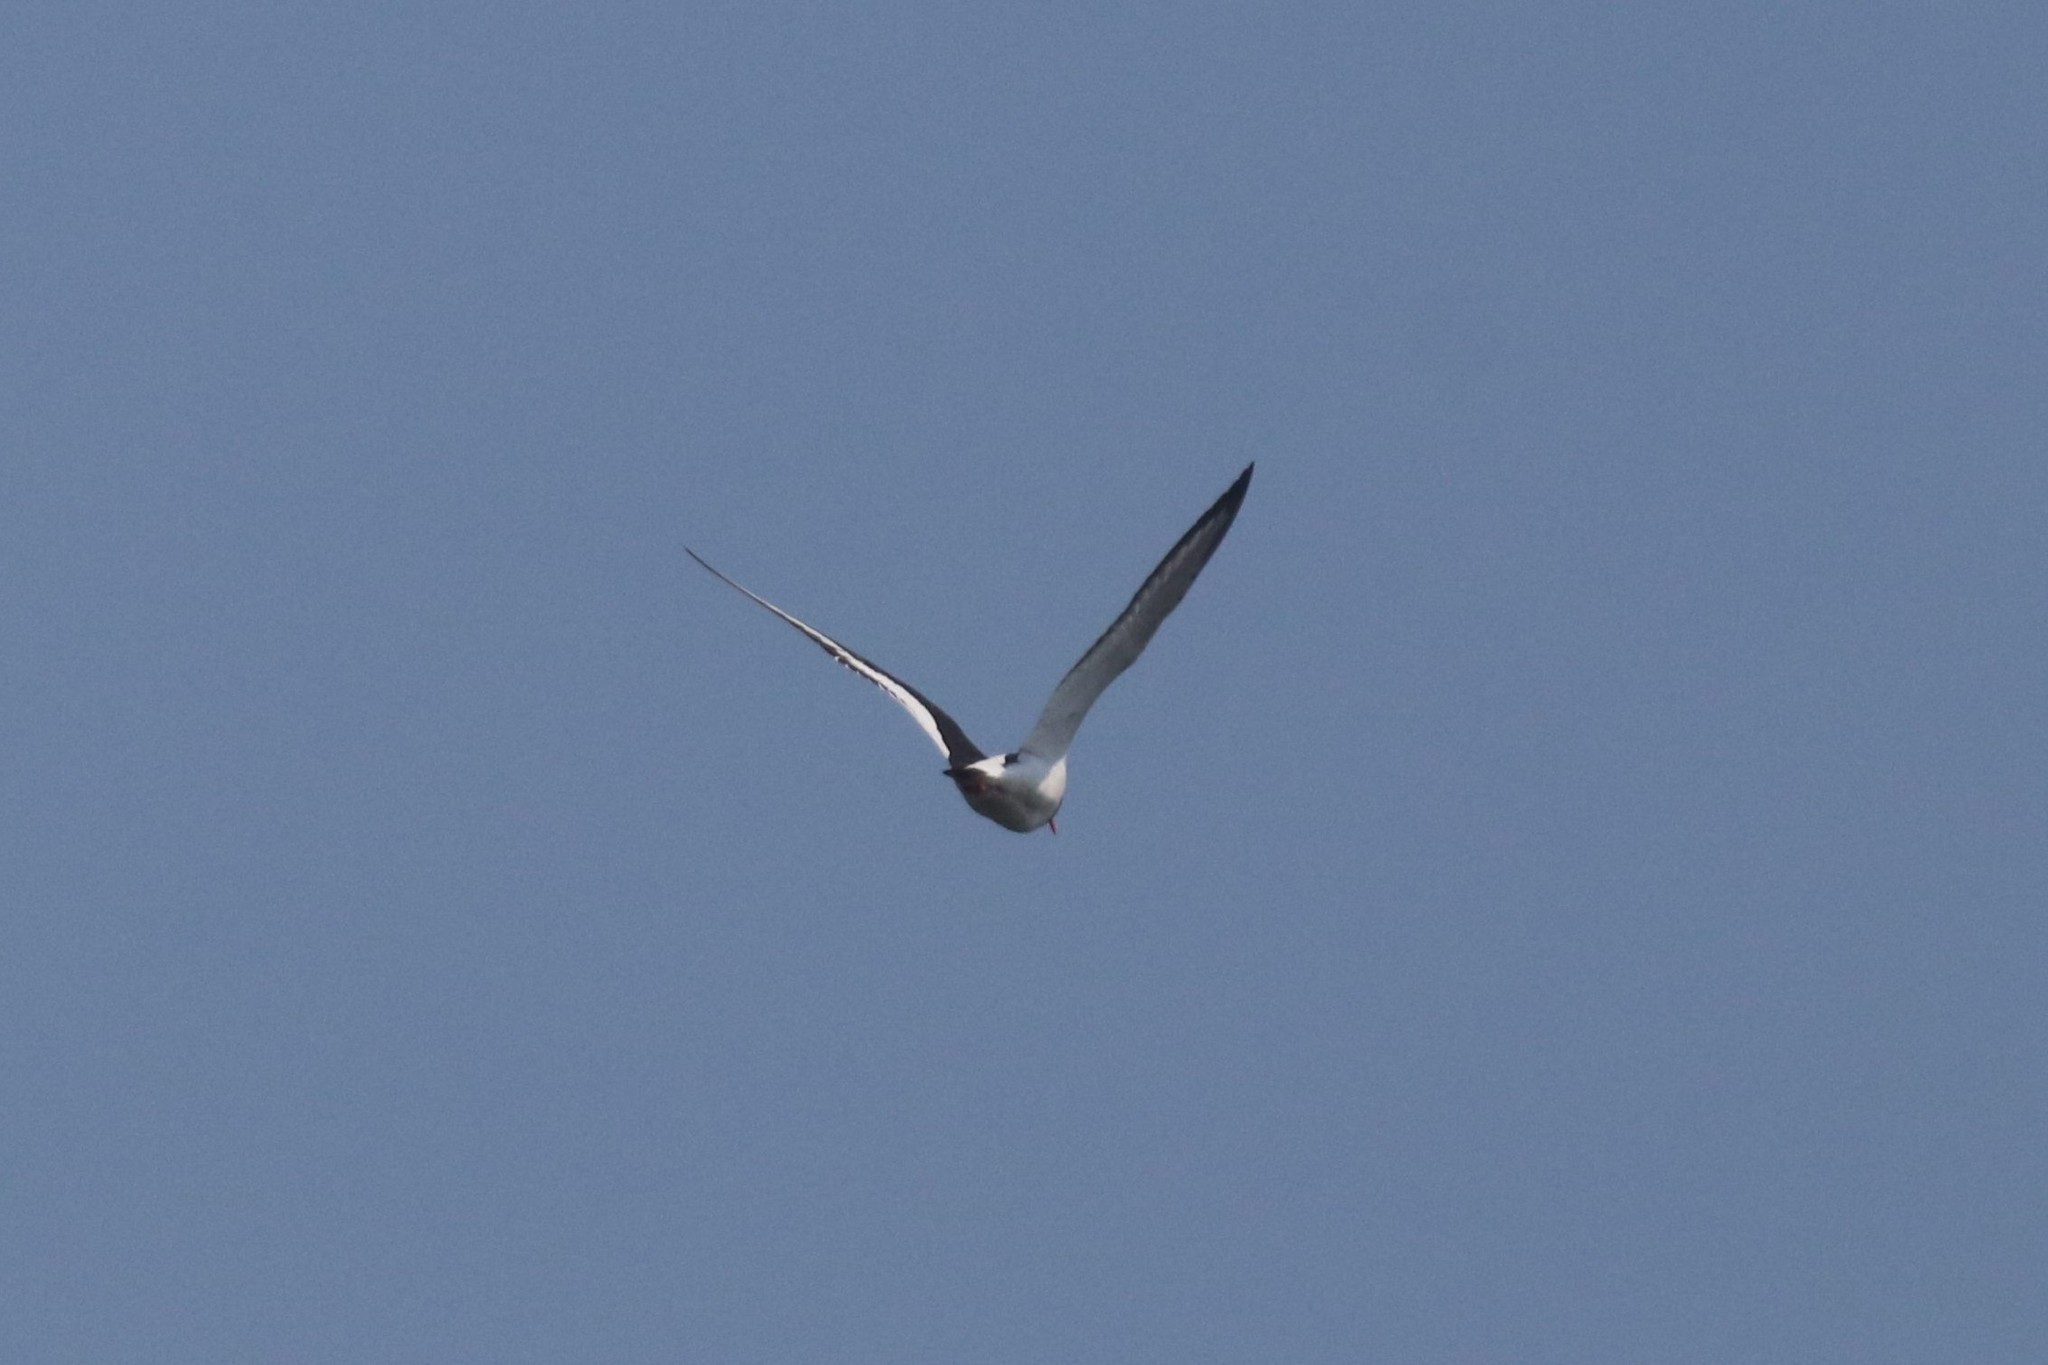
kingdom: Animalia
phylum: Chordata
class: Aves
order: Charadriiformes
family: Haematopodidae
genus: Haematopus
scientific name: Haematopus ostralegus
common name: Eurasian oystercatcher
